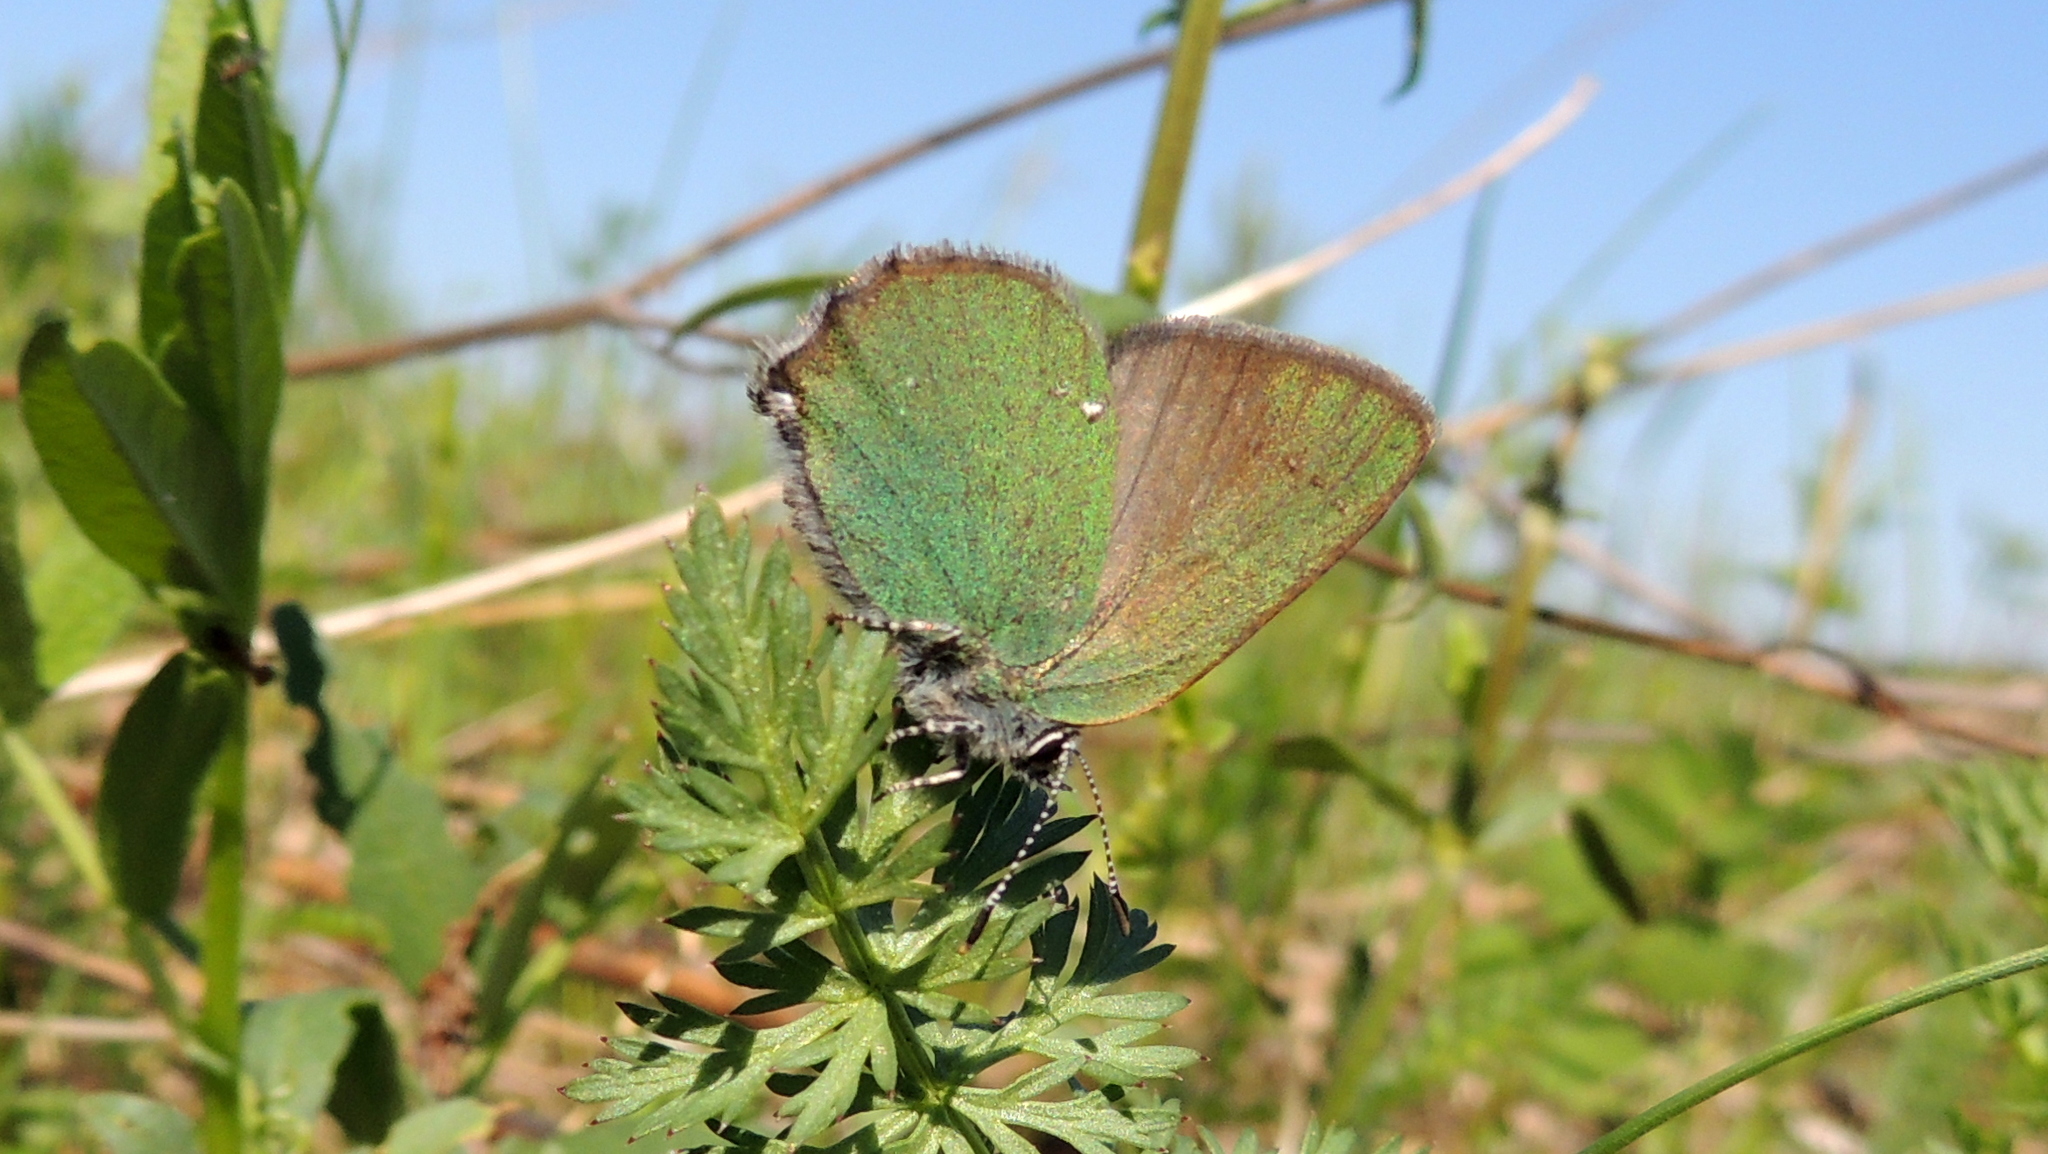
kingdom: Animalia
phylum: Arthropoda
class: Insecta
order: Lepidoptera
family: Lycaenidae
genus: Callophrys
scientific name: Callophrys rubi
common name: Green hairstreak
